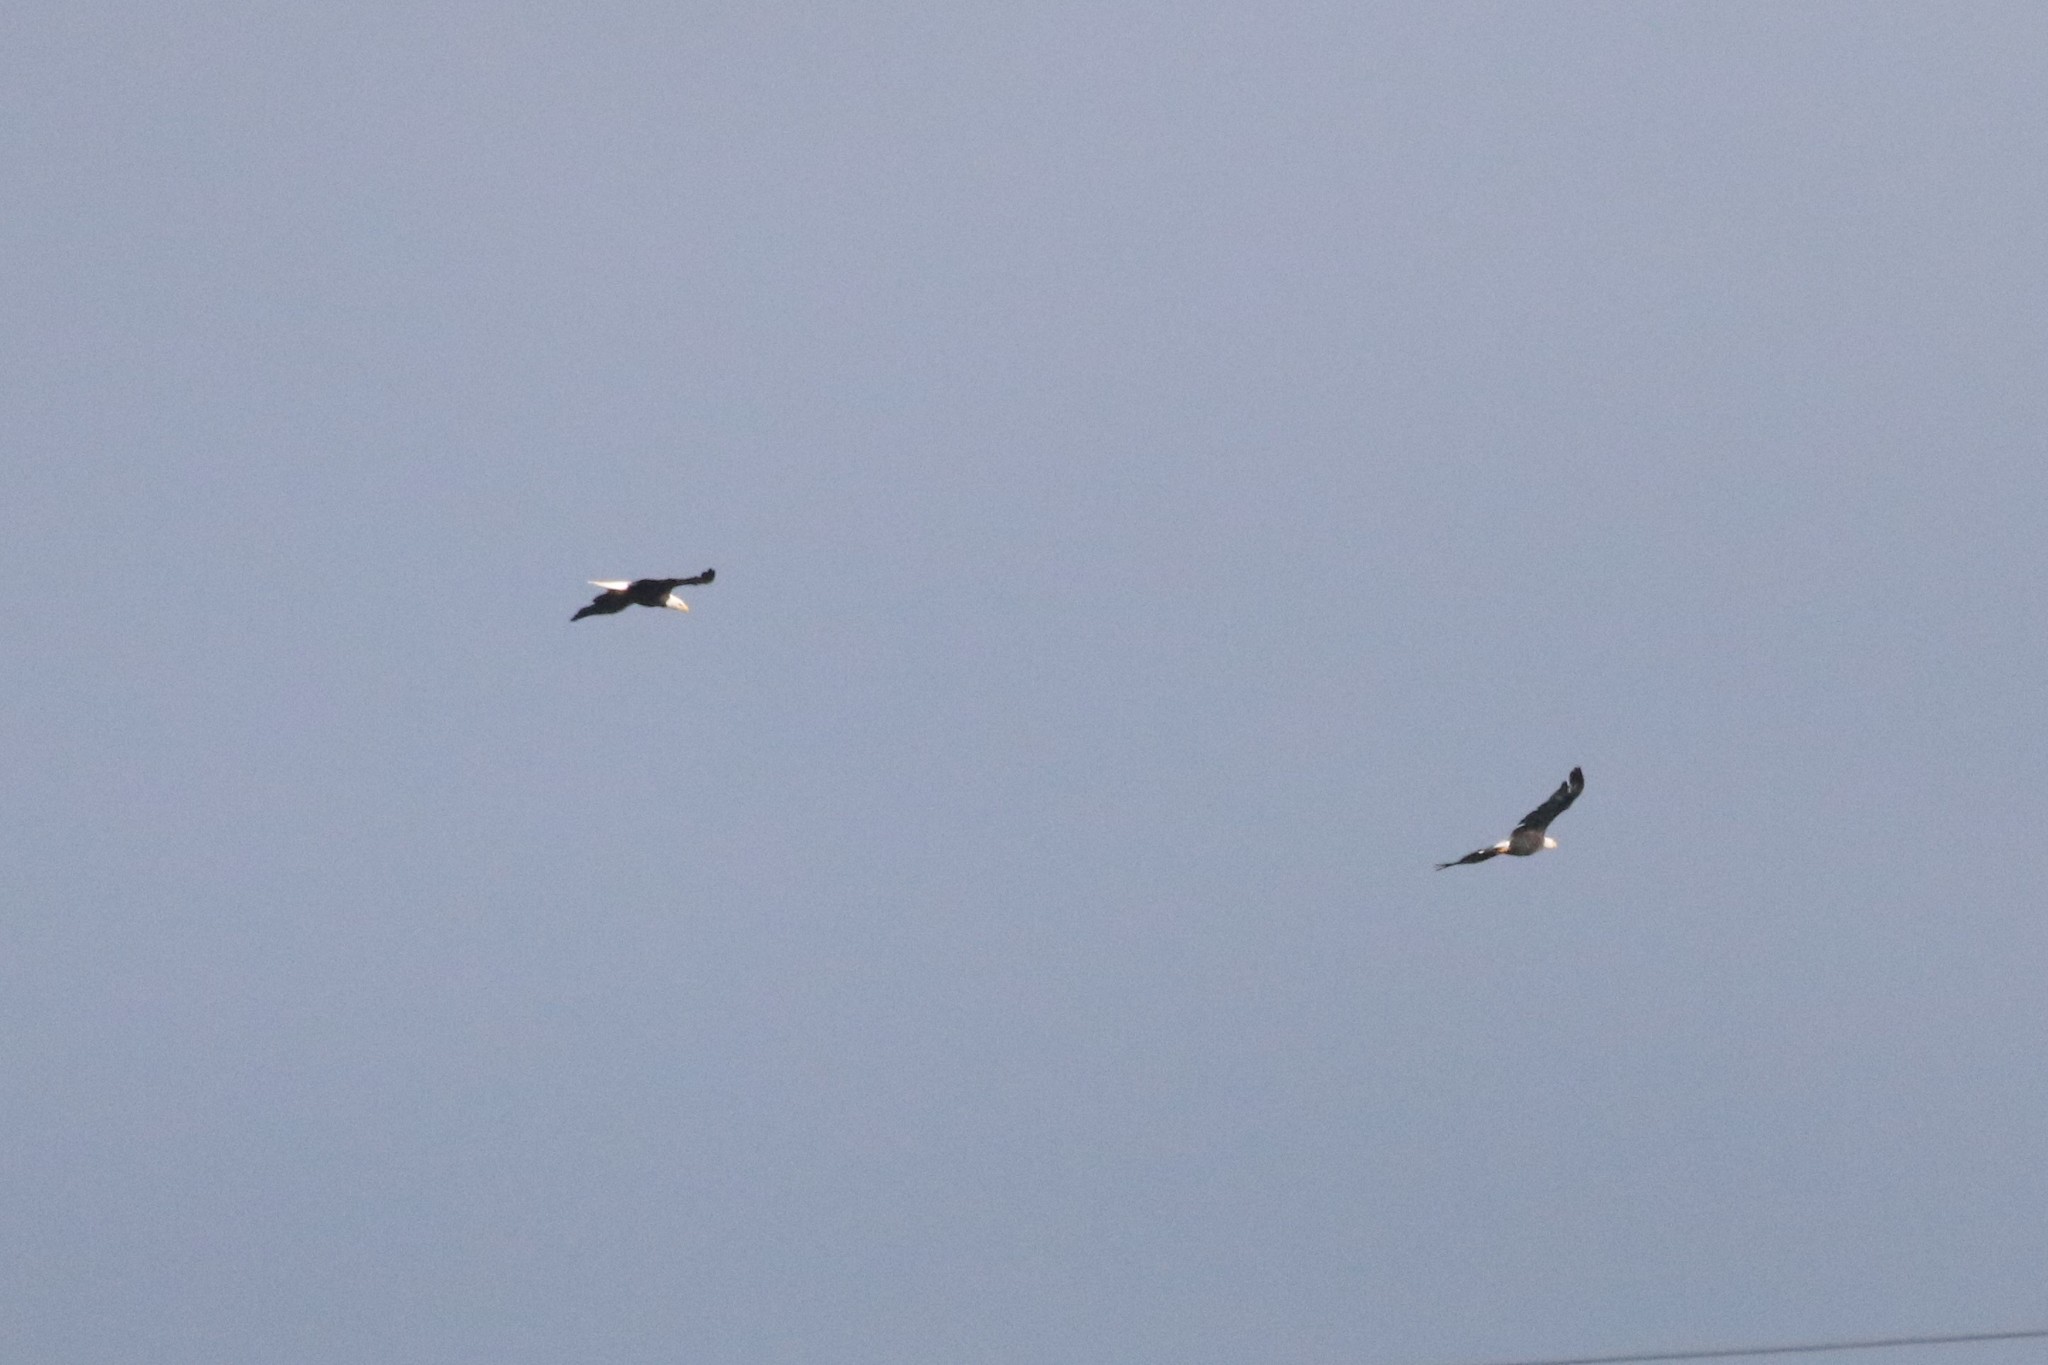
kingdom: Animalia
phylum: Chordata
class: Aves
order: Accipitriformes
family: Accipitridae
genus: Haliaeetus
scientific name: Haliaeetus leucocephalus
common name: Bald eagle
